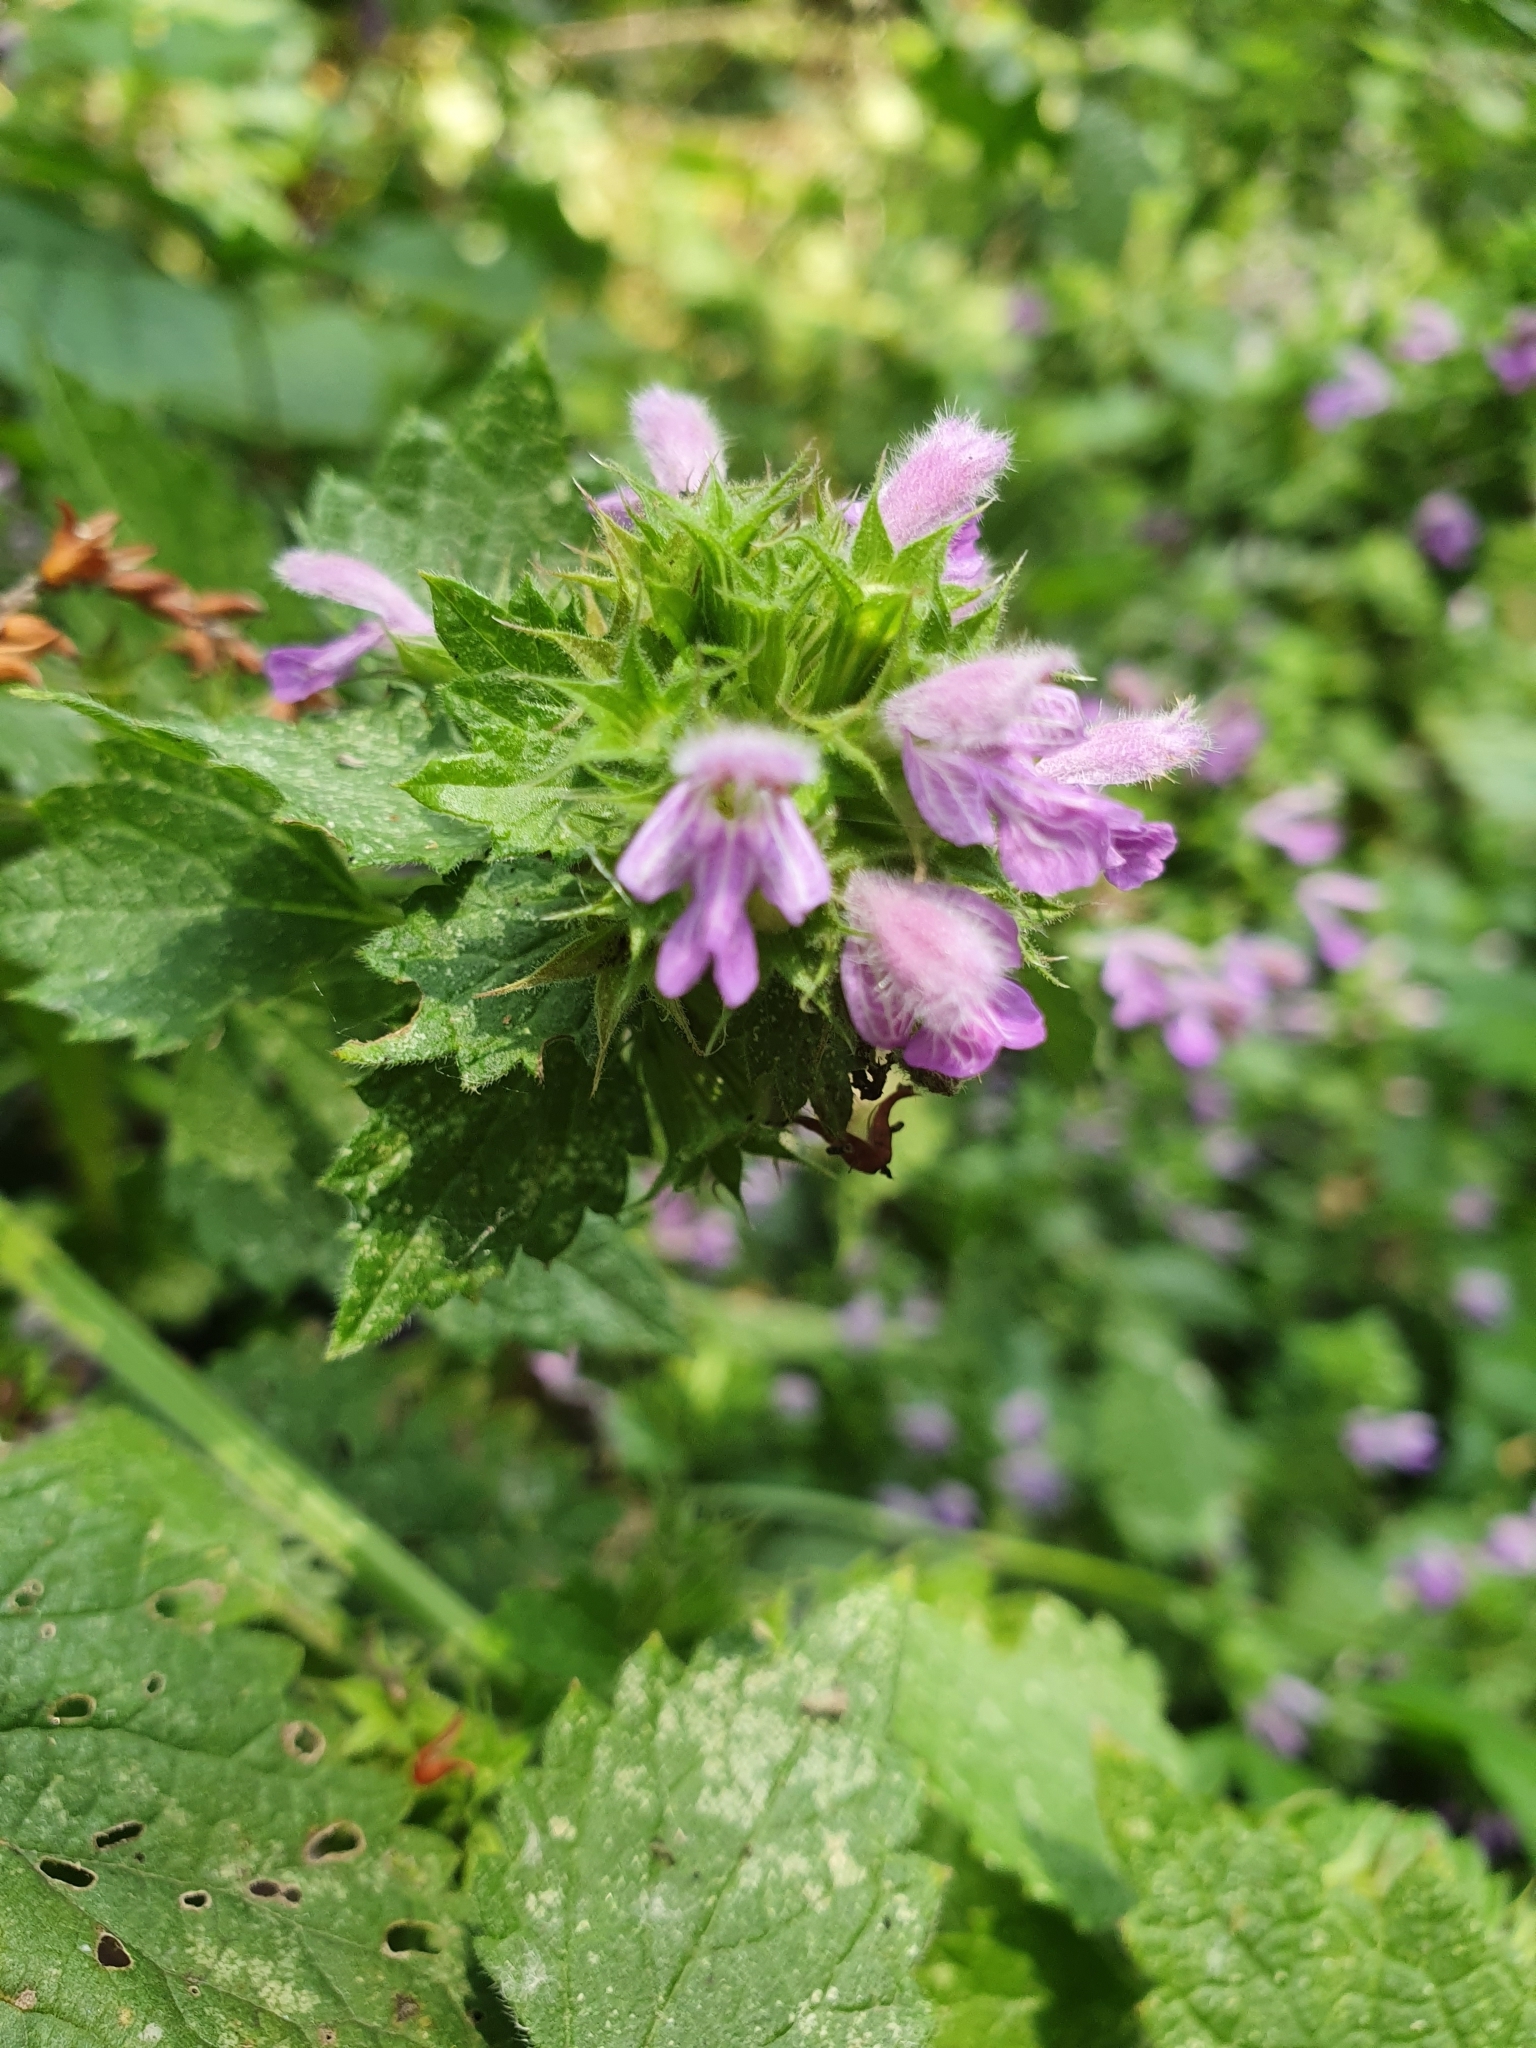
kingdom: Plantae
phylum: Tracheophyta
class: Magnoliopsida
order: Lamiales
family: Lamiaceae
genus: Ballota
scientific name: Ballota nigra
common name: Black horehound
